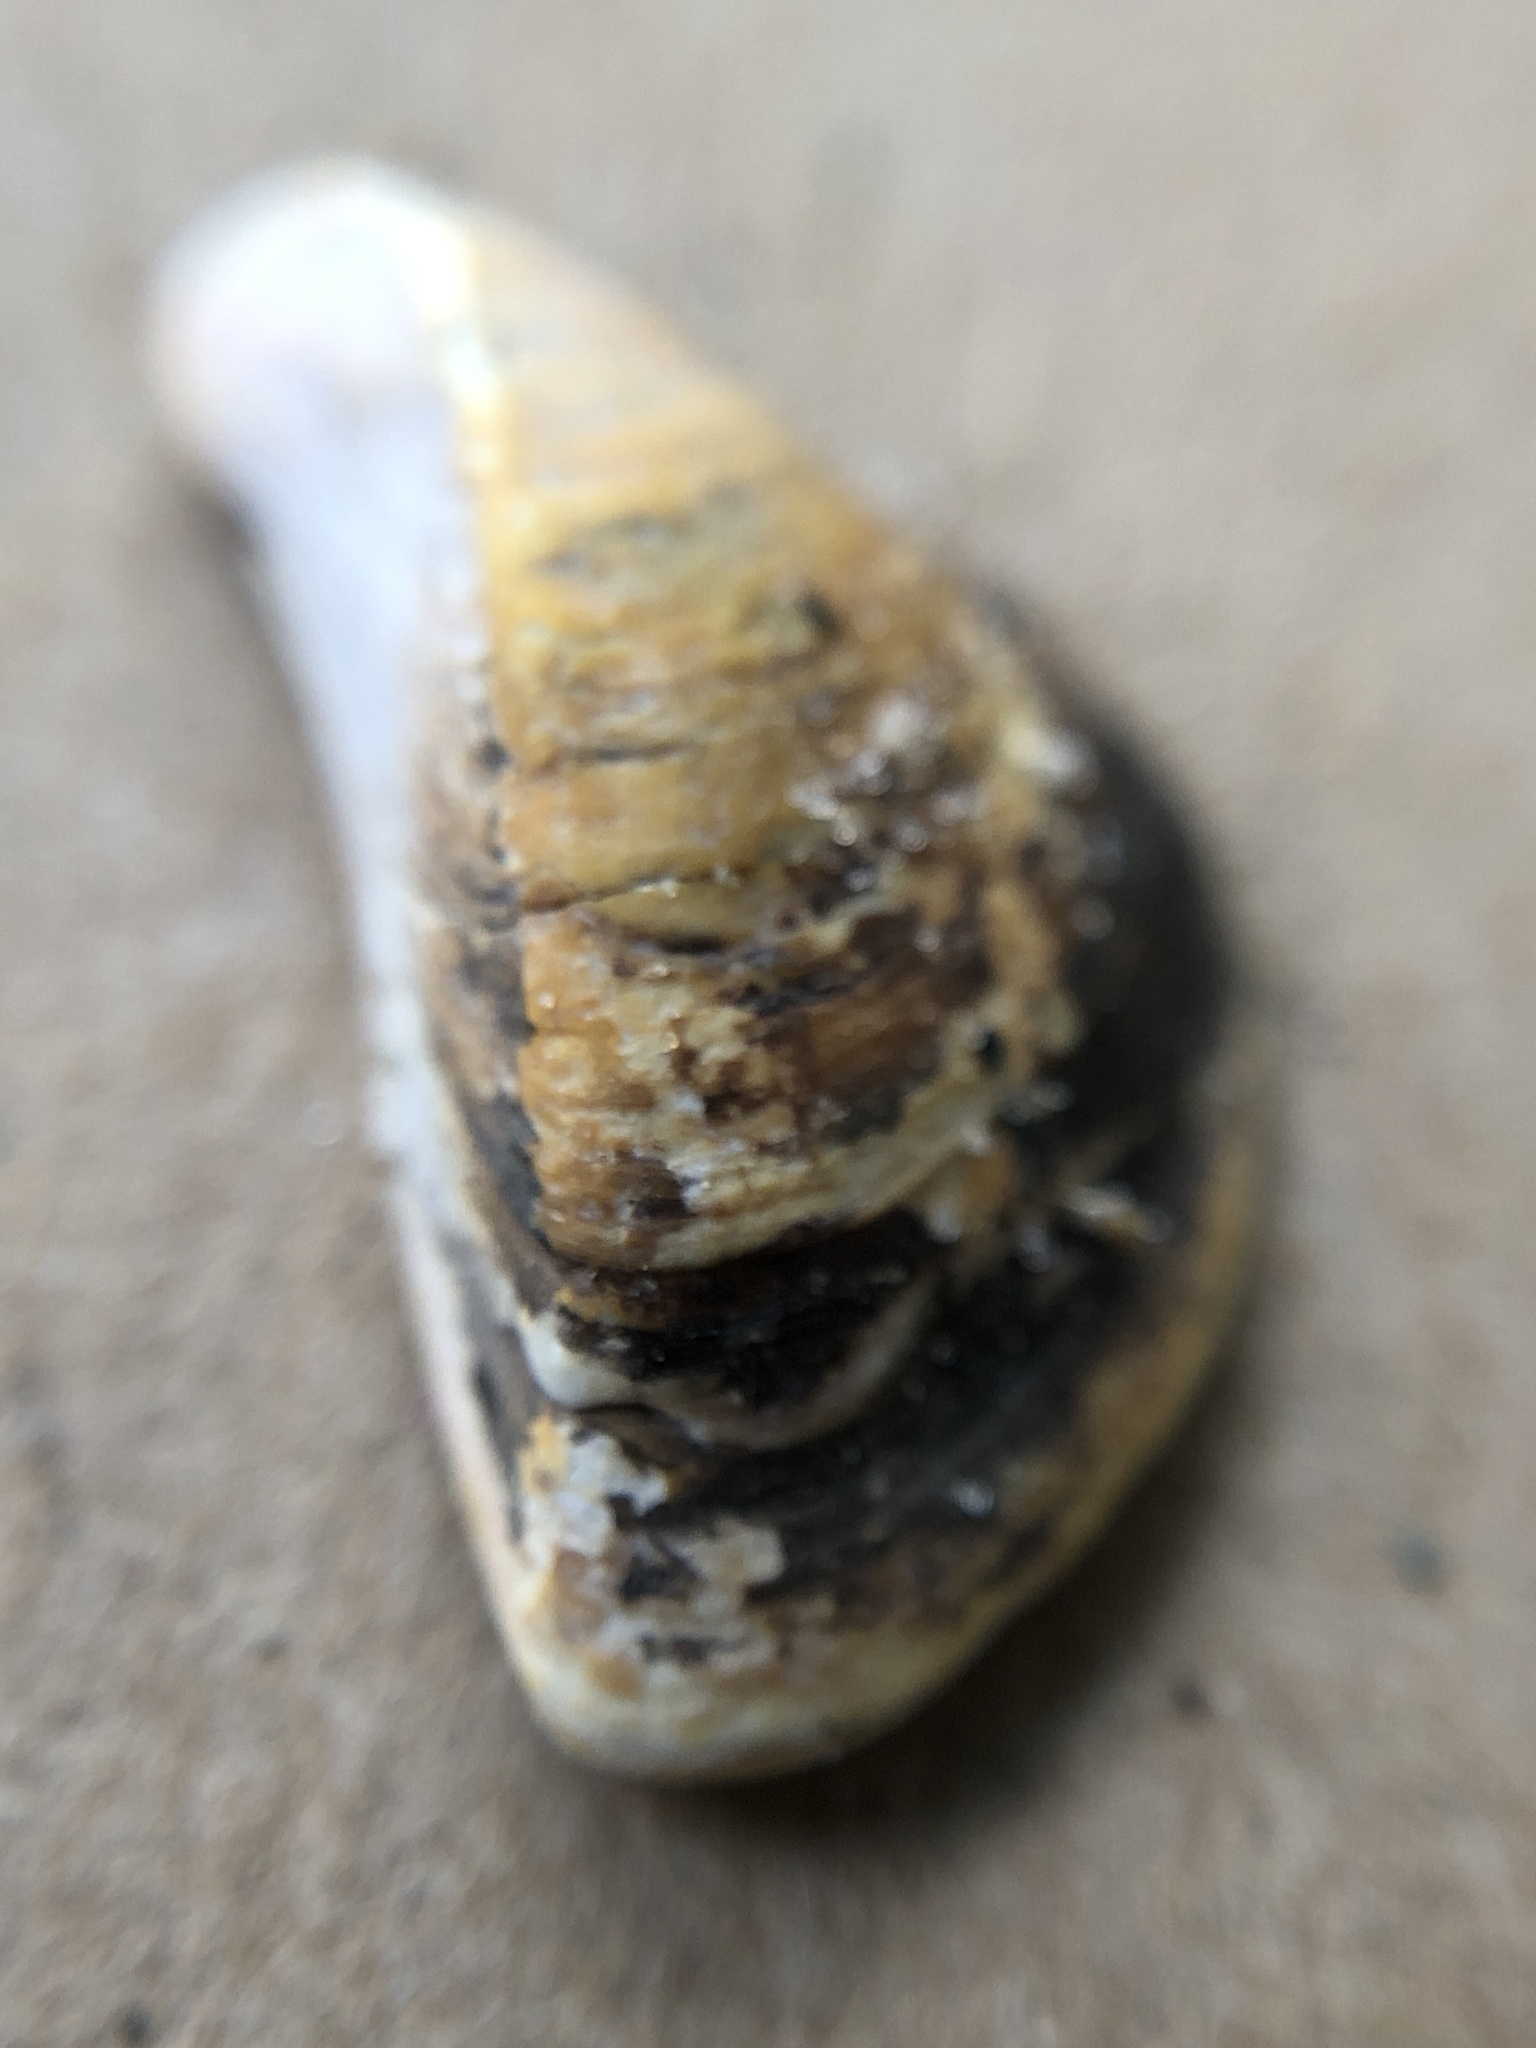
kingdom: Animalia
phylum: Mollusca
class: Bivalvia
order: Myida
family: Dreissenidae
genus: Dreissena
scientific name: Dreissena polymorpha
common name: Zebra mussel
